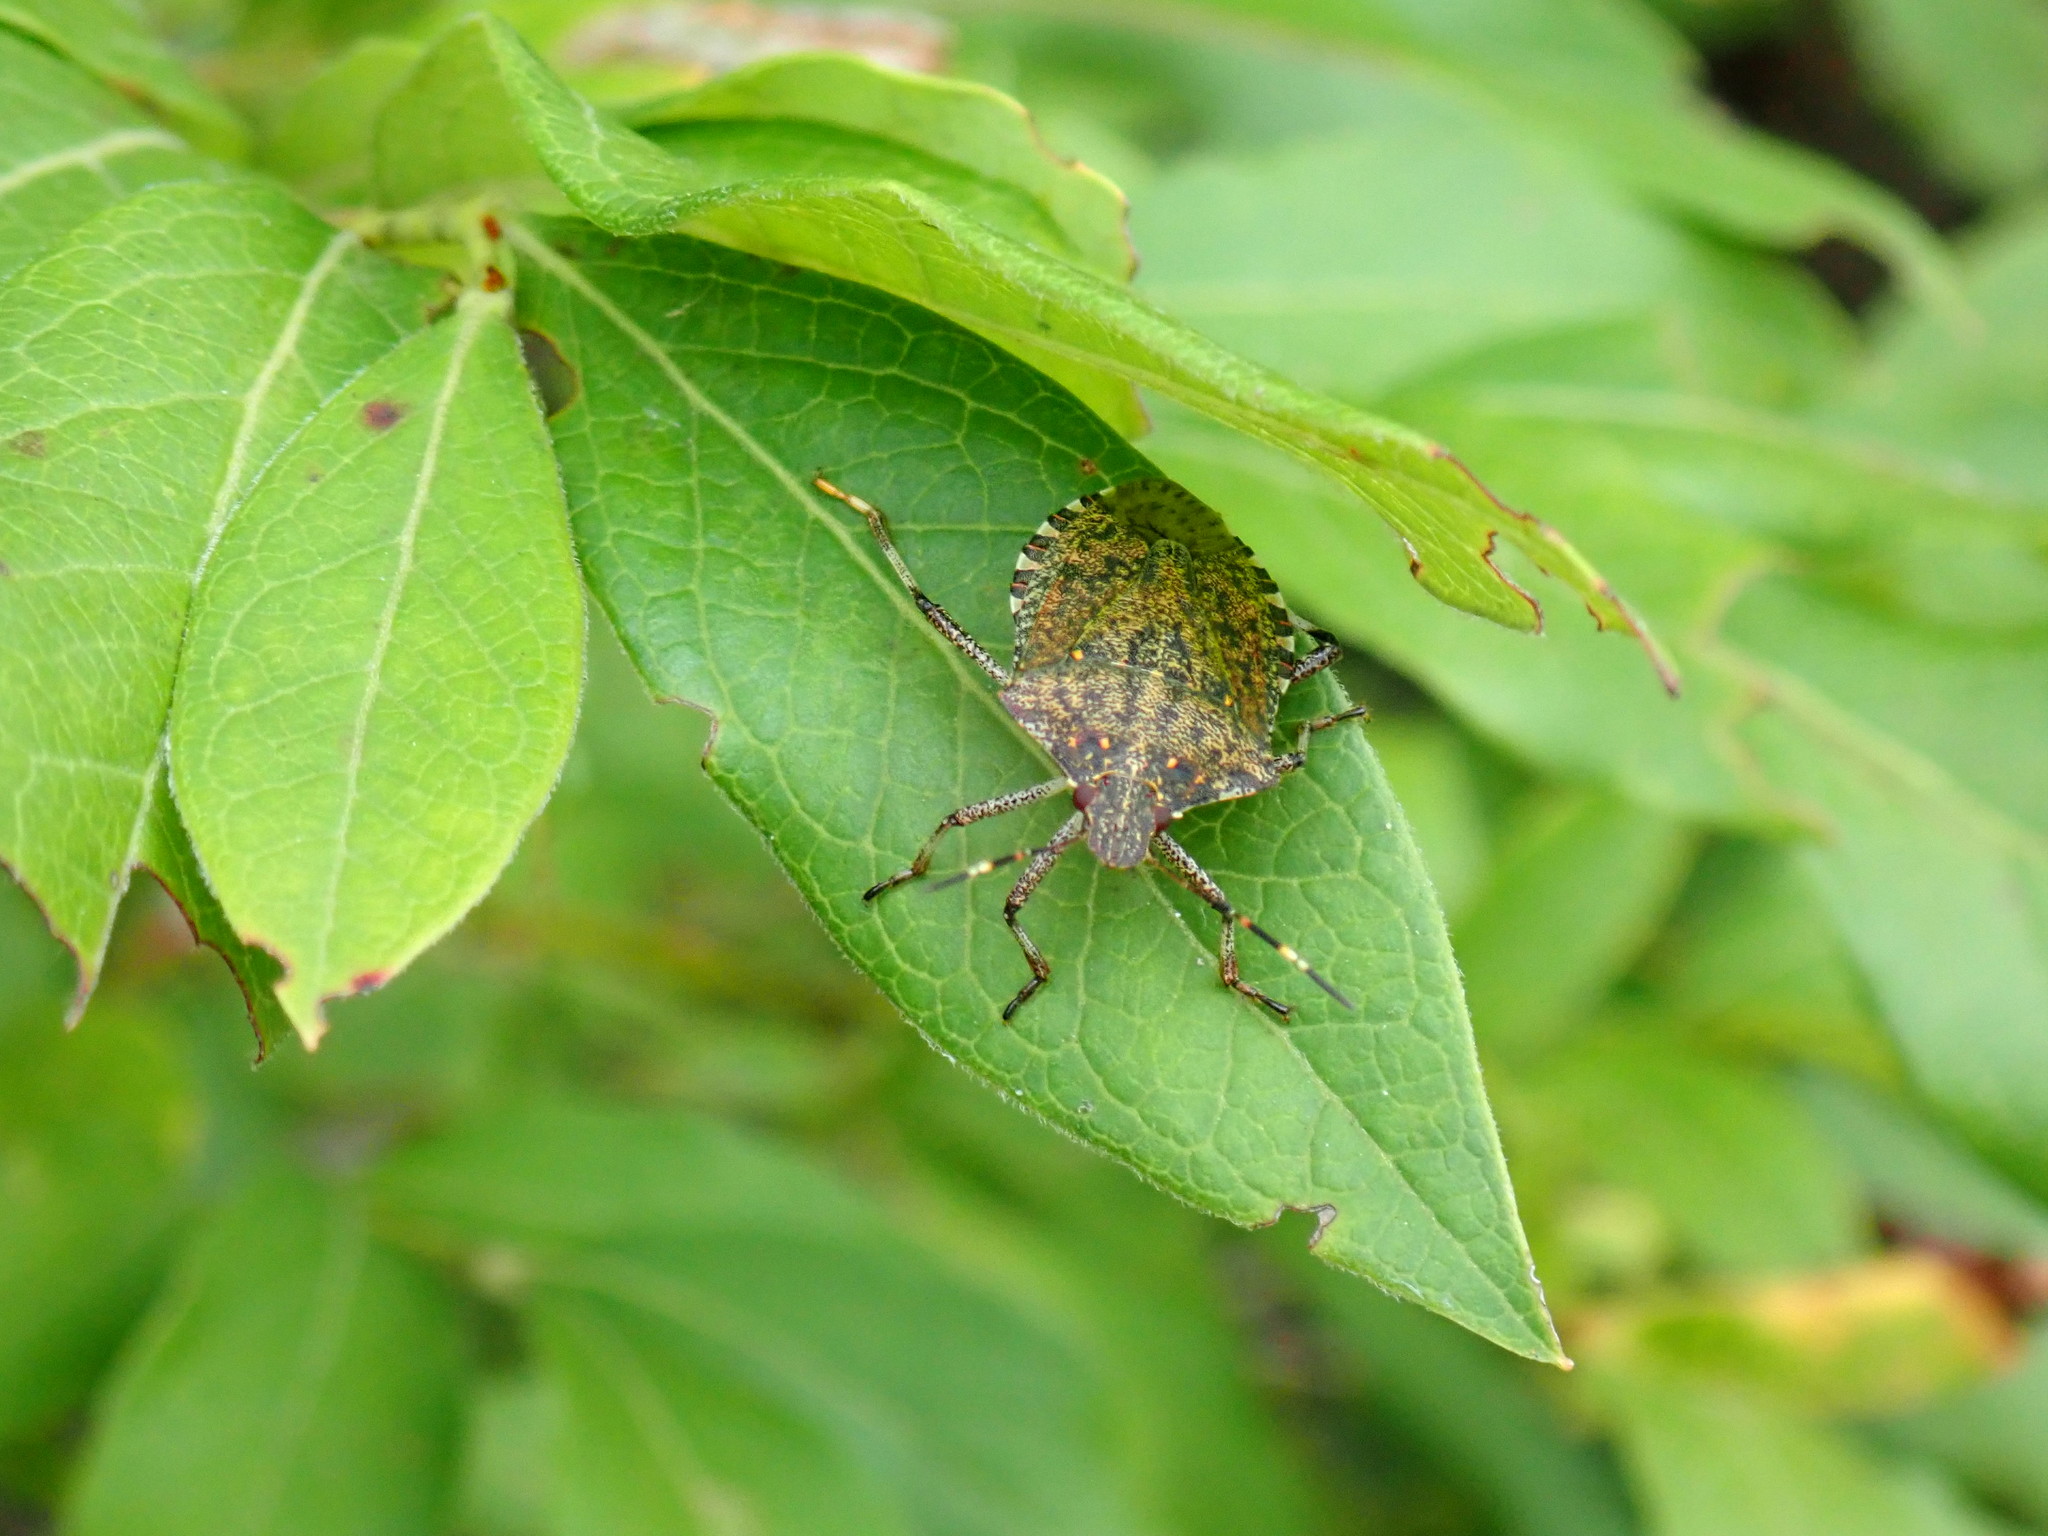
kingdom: Animalia
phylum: Arthropoda
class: Insecta
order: Hemiptera
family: Pentatomidae
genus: Halyomorpha
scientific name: Halyomorpha halys
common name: Brown marmorated stink bug
